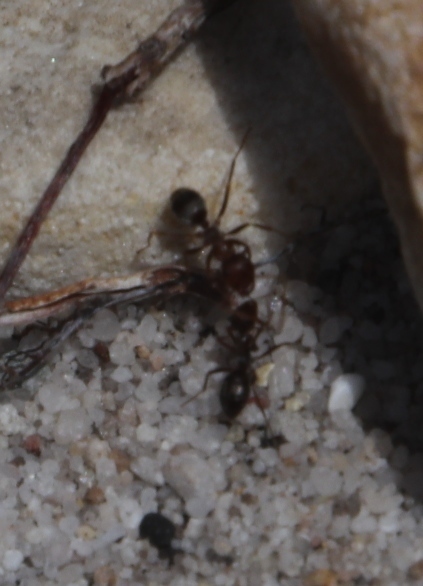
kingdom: Animalia
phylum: Arthropoda
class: Insecta
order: Hymenoptera
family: Formicidae
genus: Anoplolepis
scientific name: Anoplolepis steingroeveri
